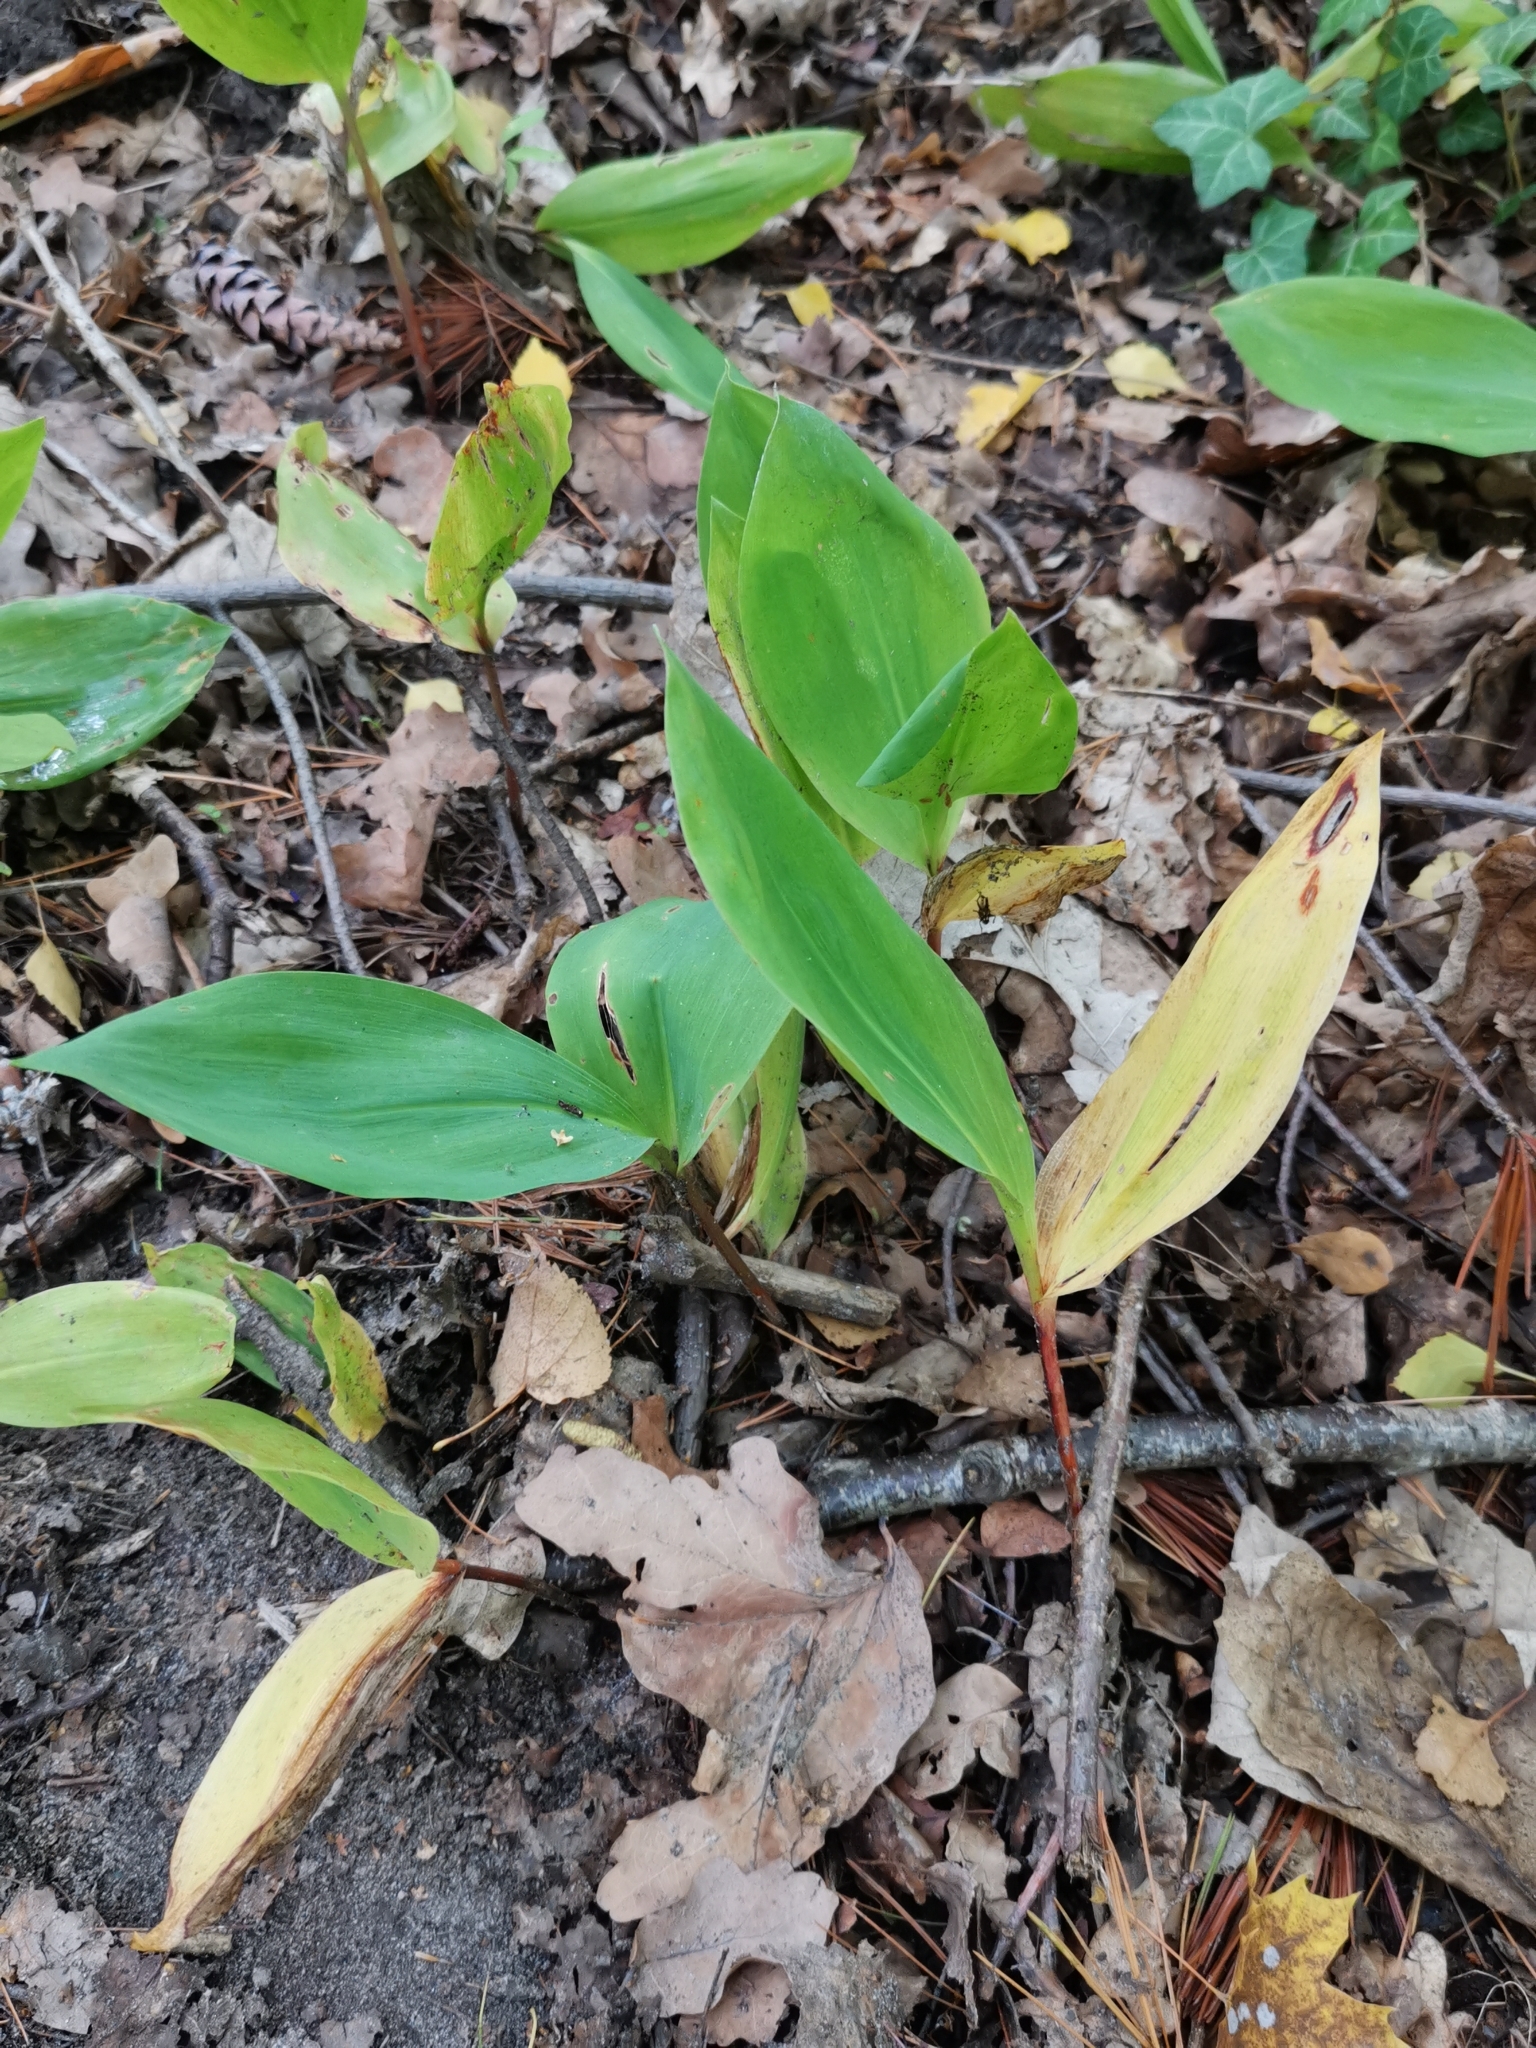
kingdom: Plantae
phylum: Tracheophyta
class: Liliopsida
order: Asparagales
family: Asparagaceae
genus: Convallaria
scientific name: Convallaria majalis
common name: Lily-of-the-valley
